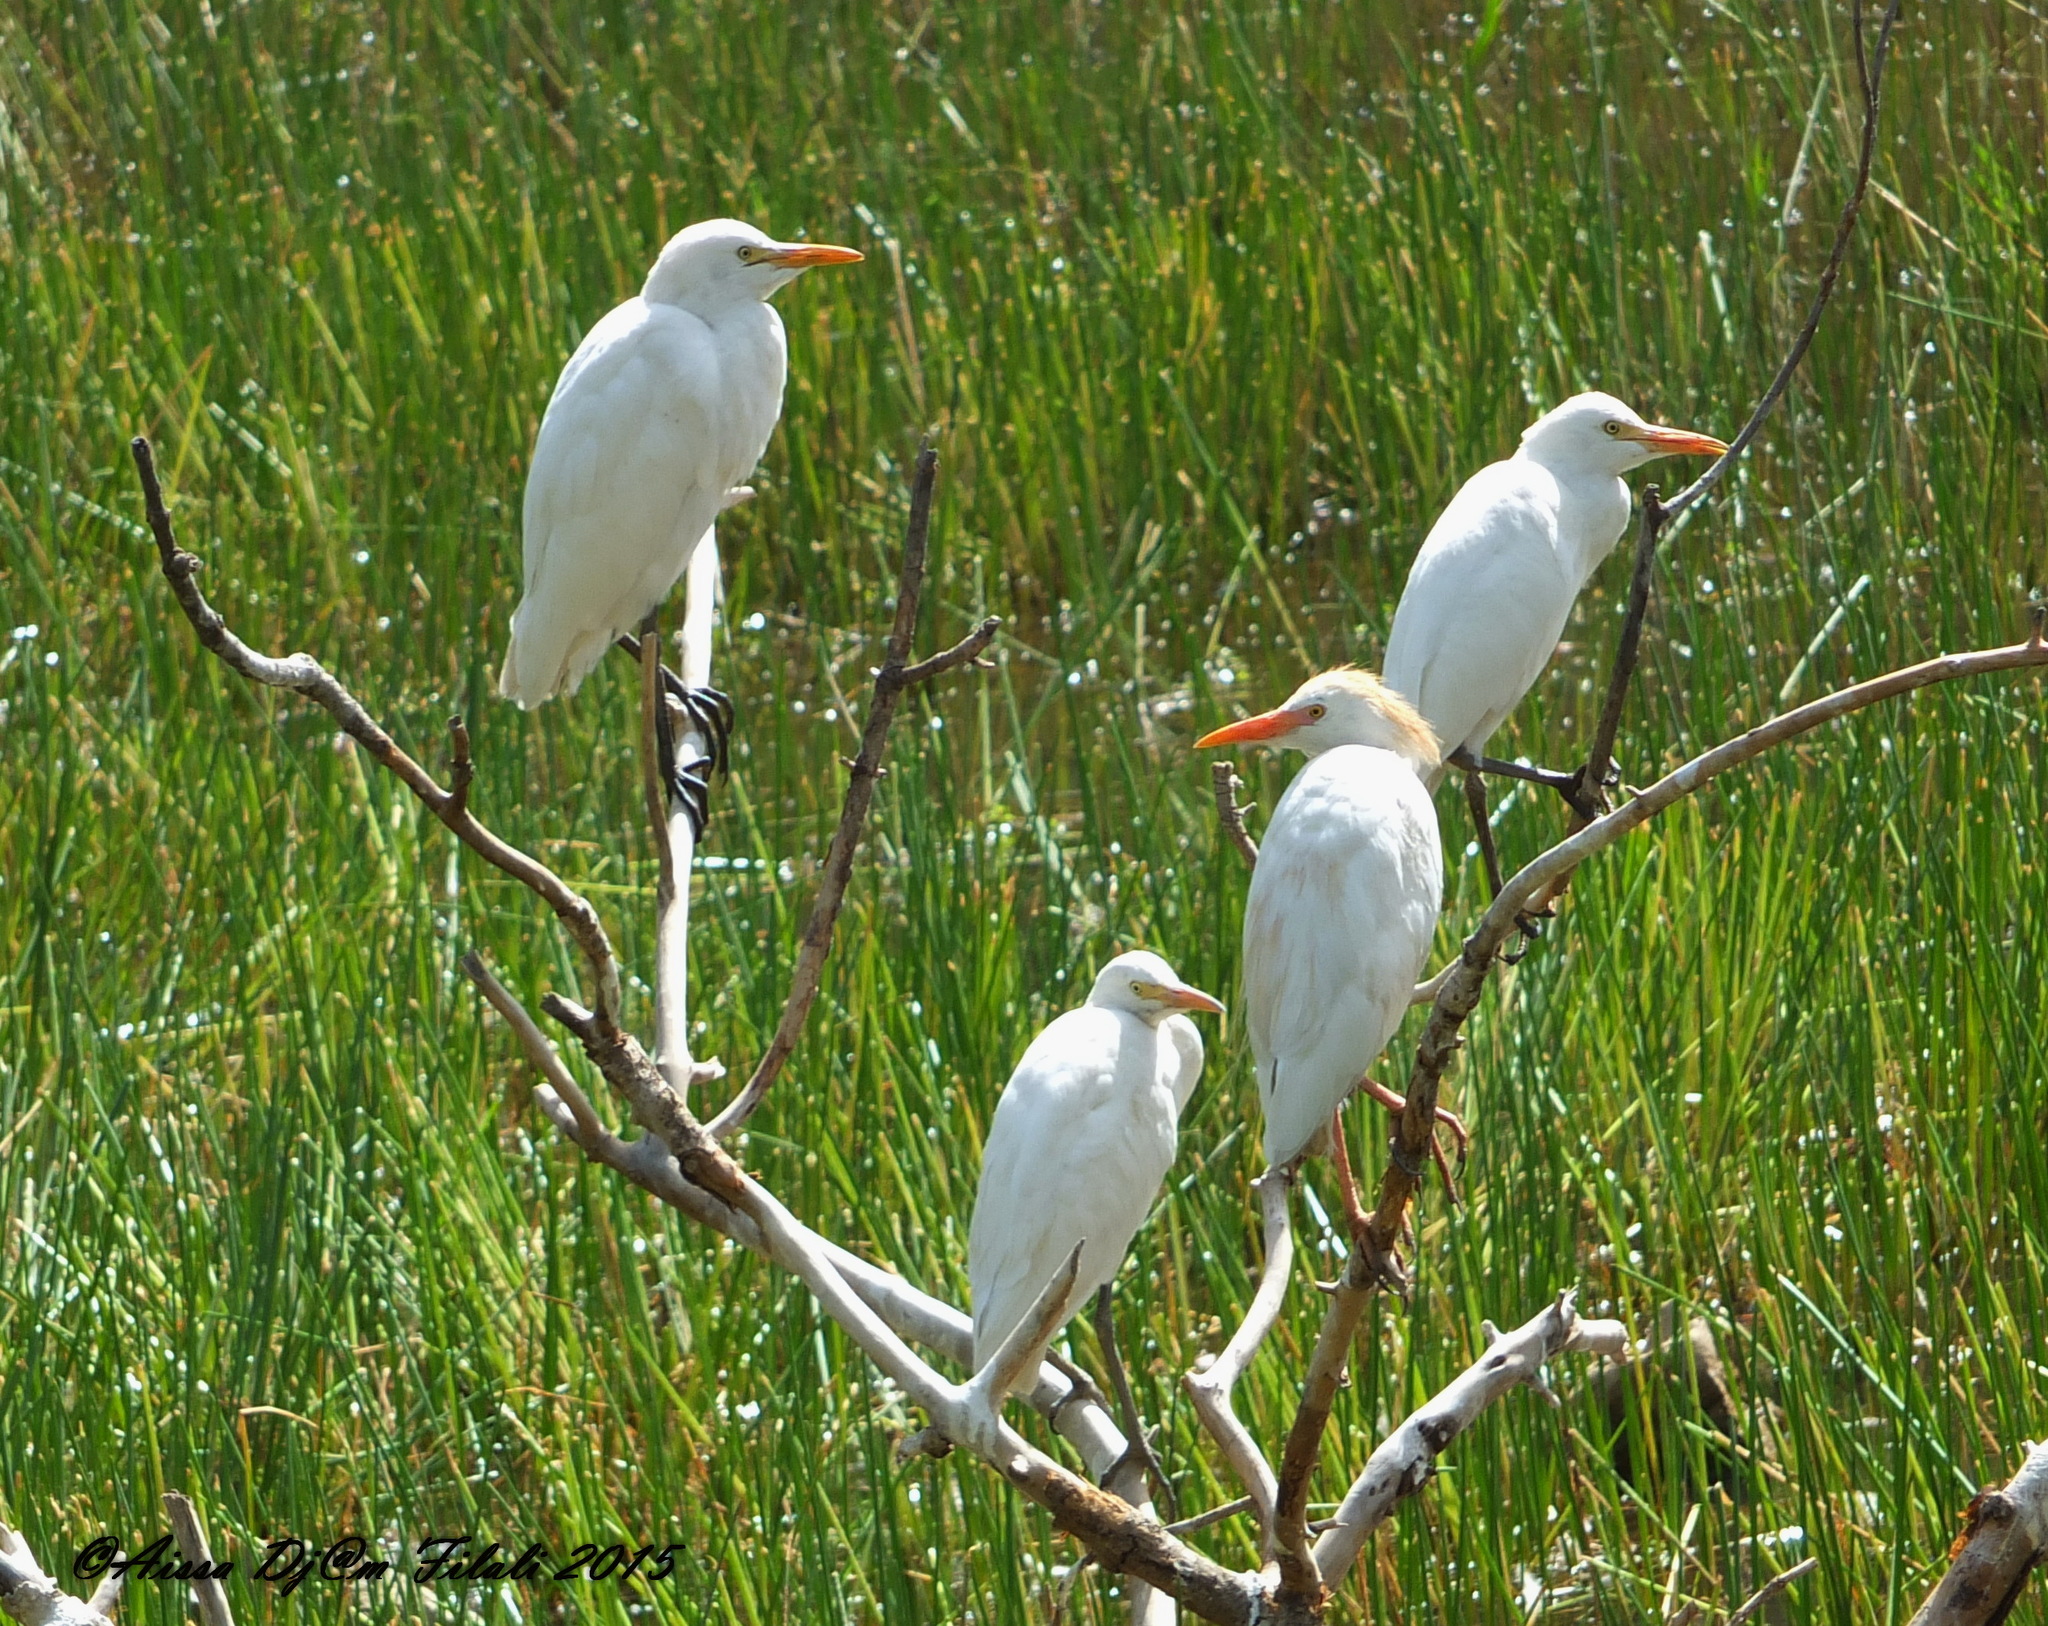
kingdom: Animalia
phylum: Chordata
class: Aves
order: Pelecaniformes
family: Ardeidae
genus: Bubulcus
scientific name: Bubulcus ibis
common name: Cattle egret
